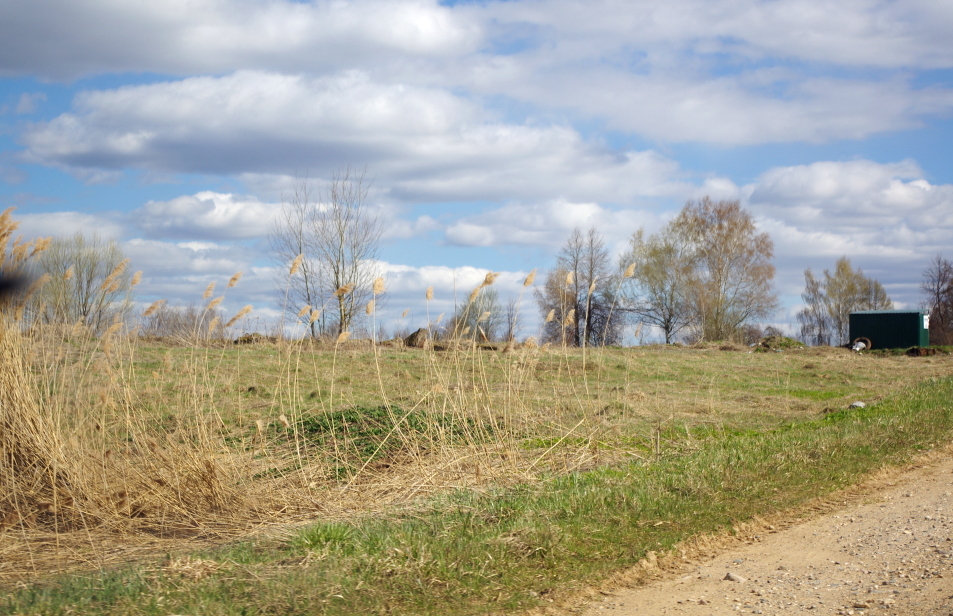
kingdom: Plantae
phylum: Tracheophyta
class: Liliopsida
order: Poales
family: Poaceae
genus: Phragmites
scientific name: Phragmites australis
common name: Common reed
